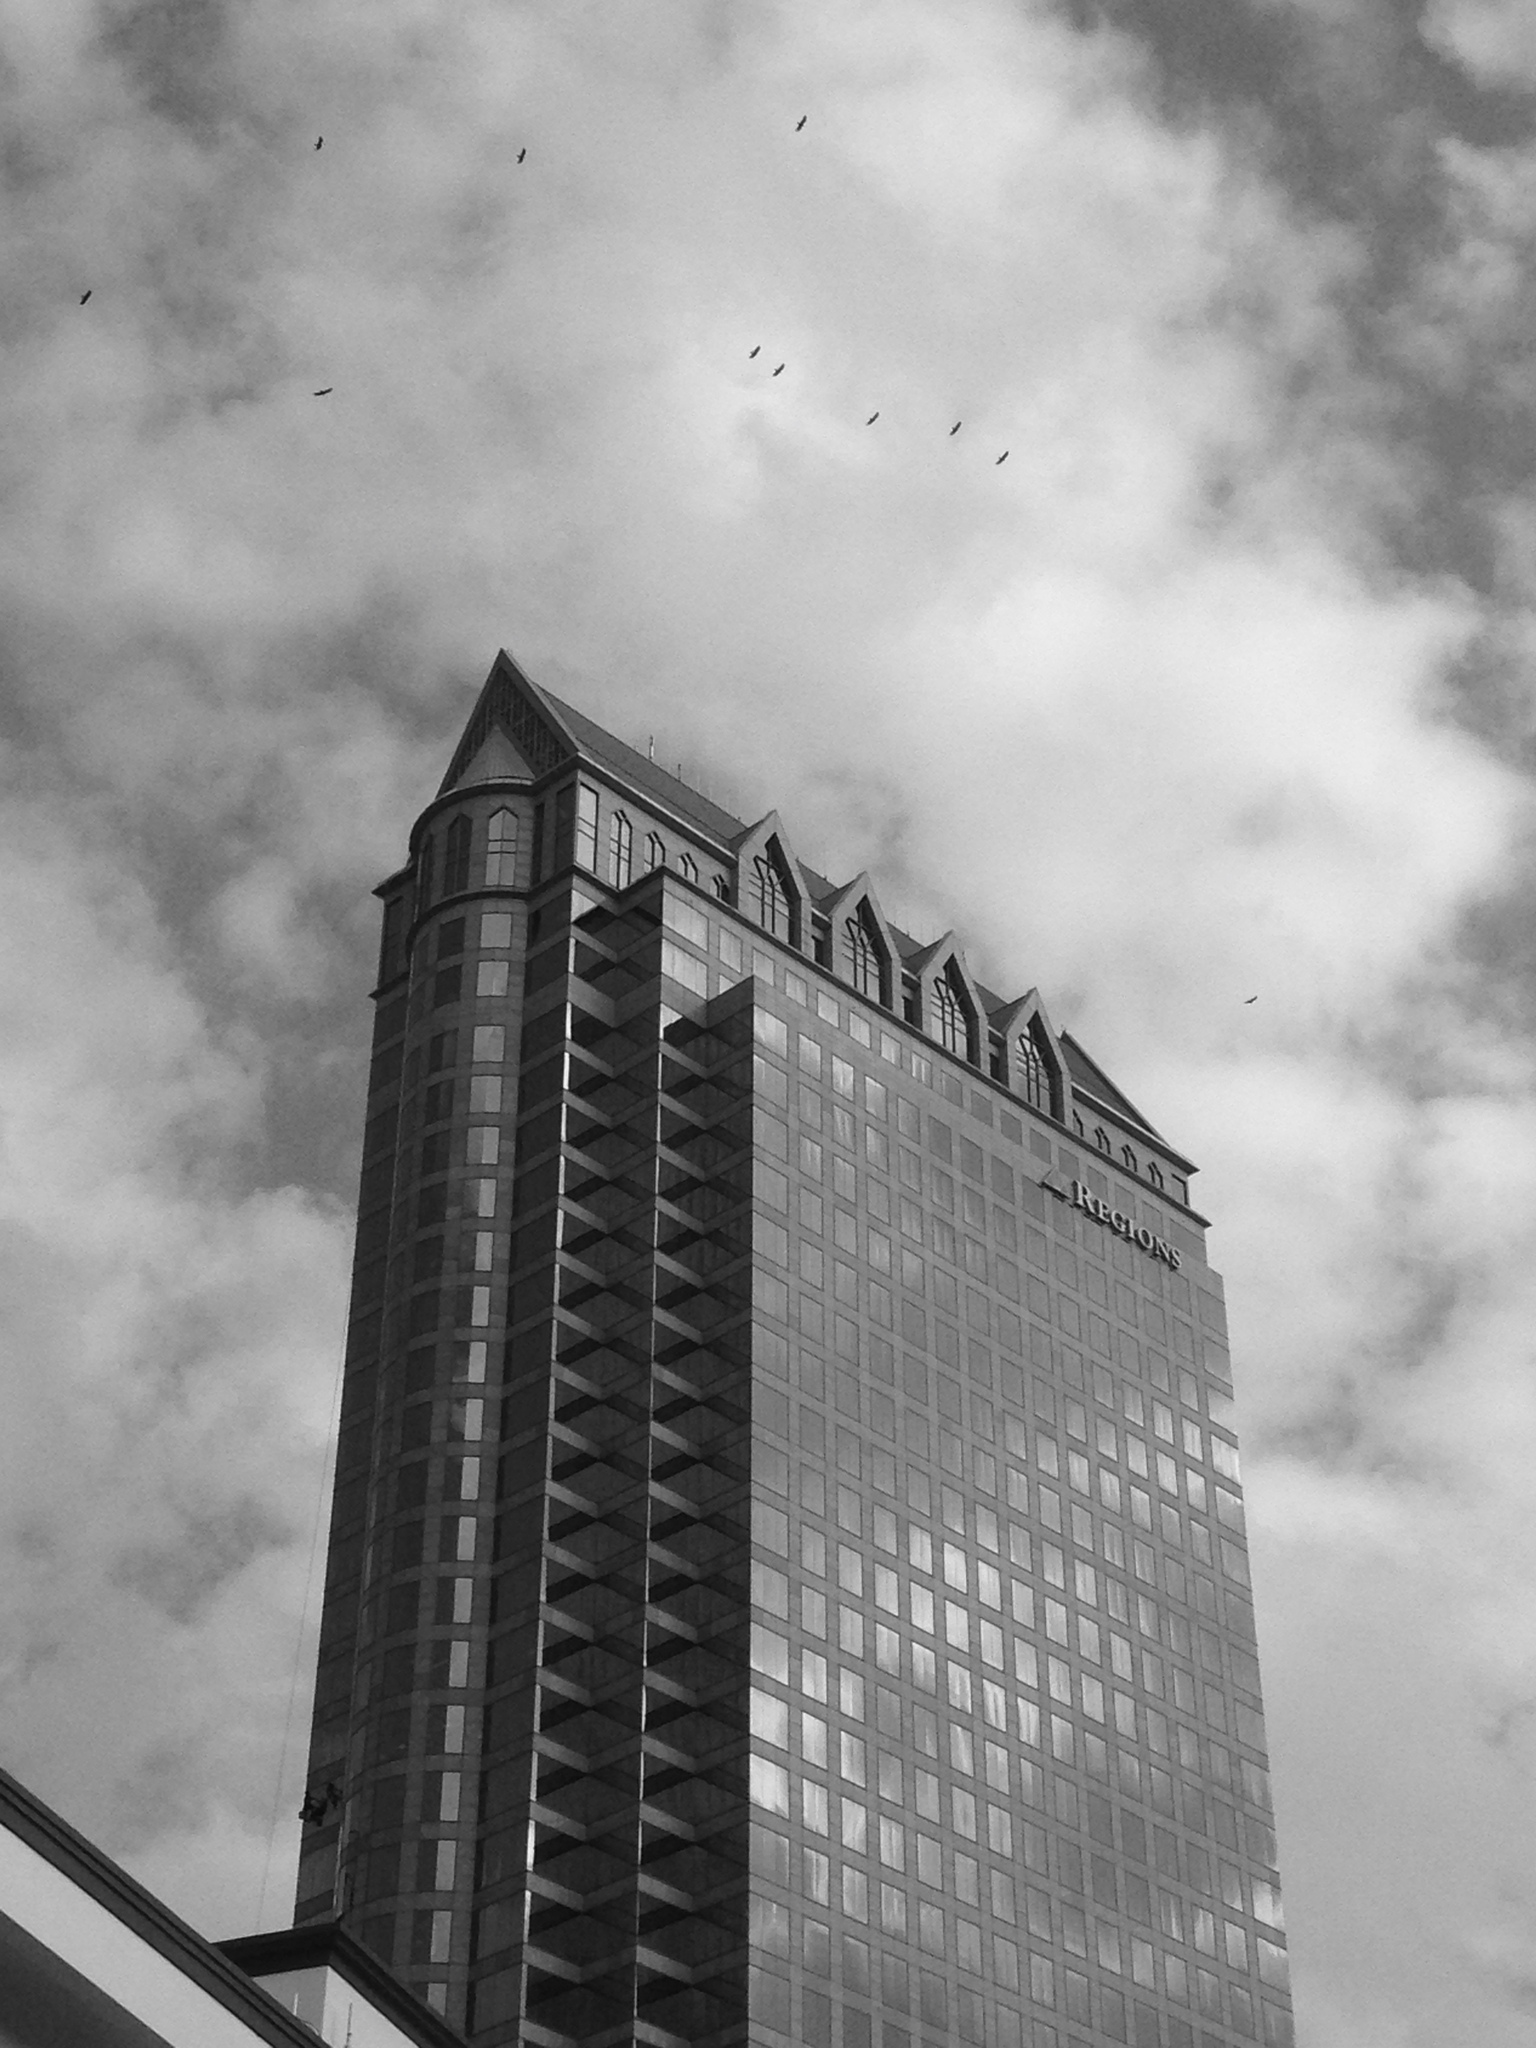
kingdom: Animalia
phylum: Chordata
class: Aves
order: Accipitriformes
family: Cathartidae
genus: Cathartes
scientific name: Cathartes aura
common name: Turkey vulture
